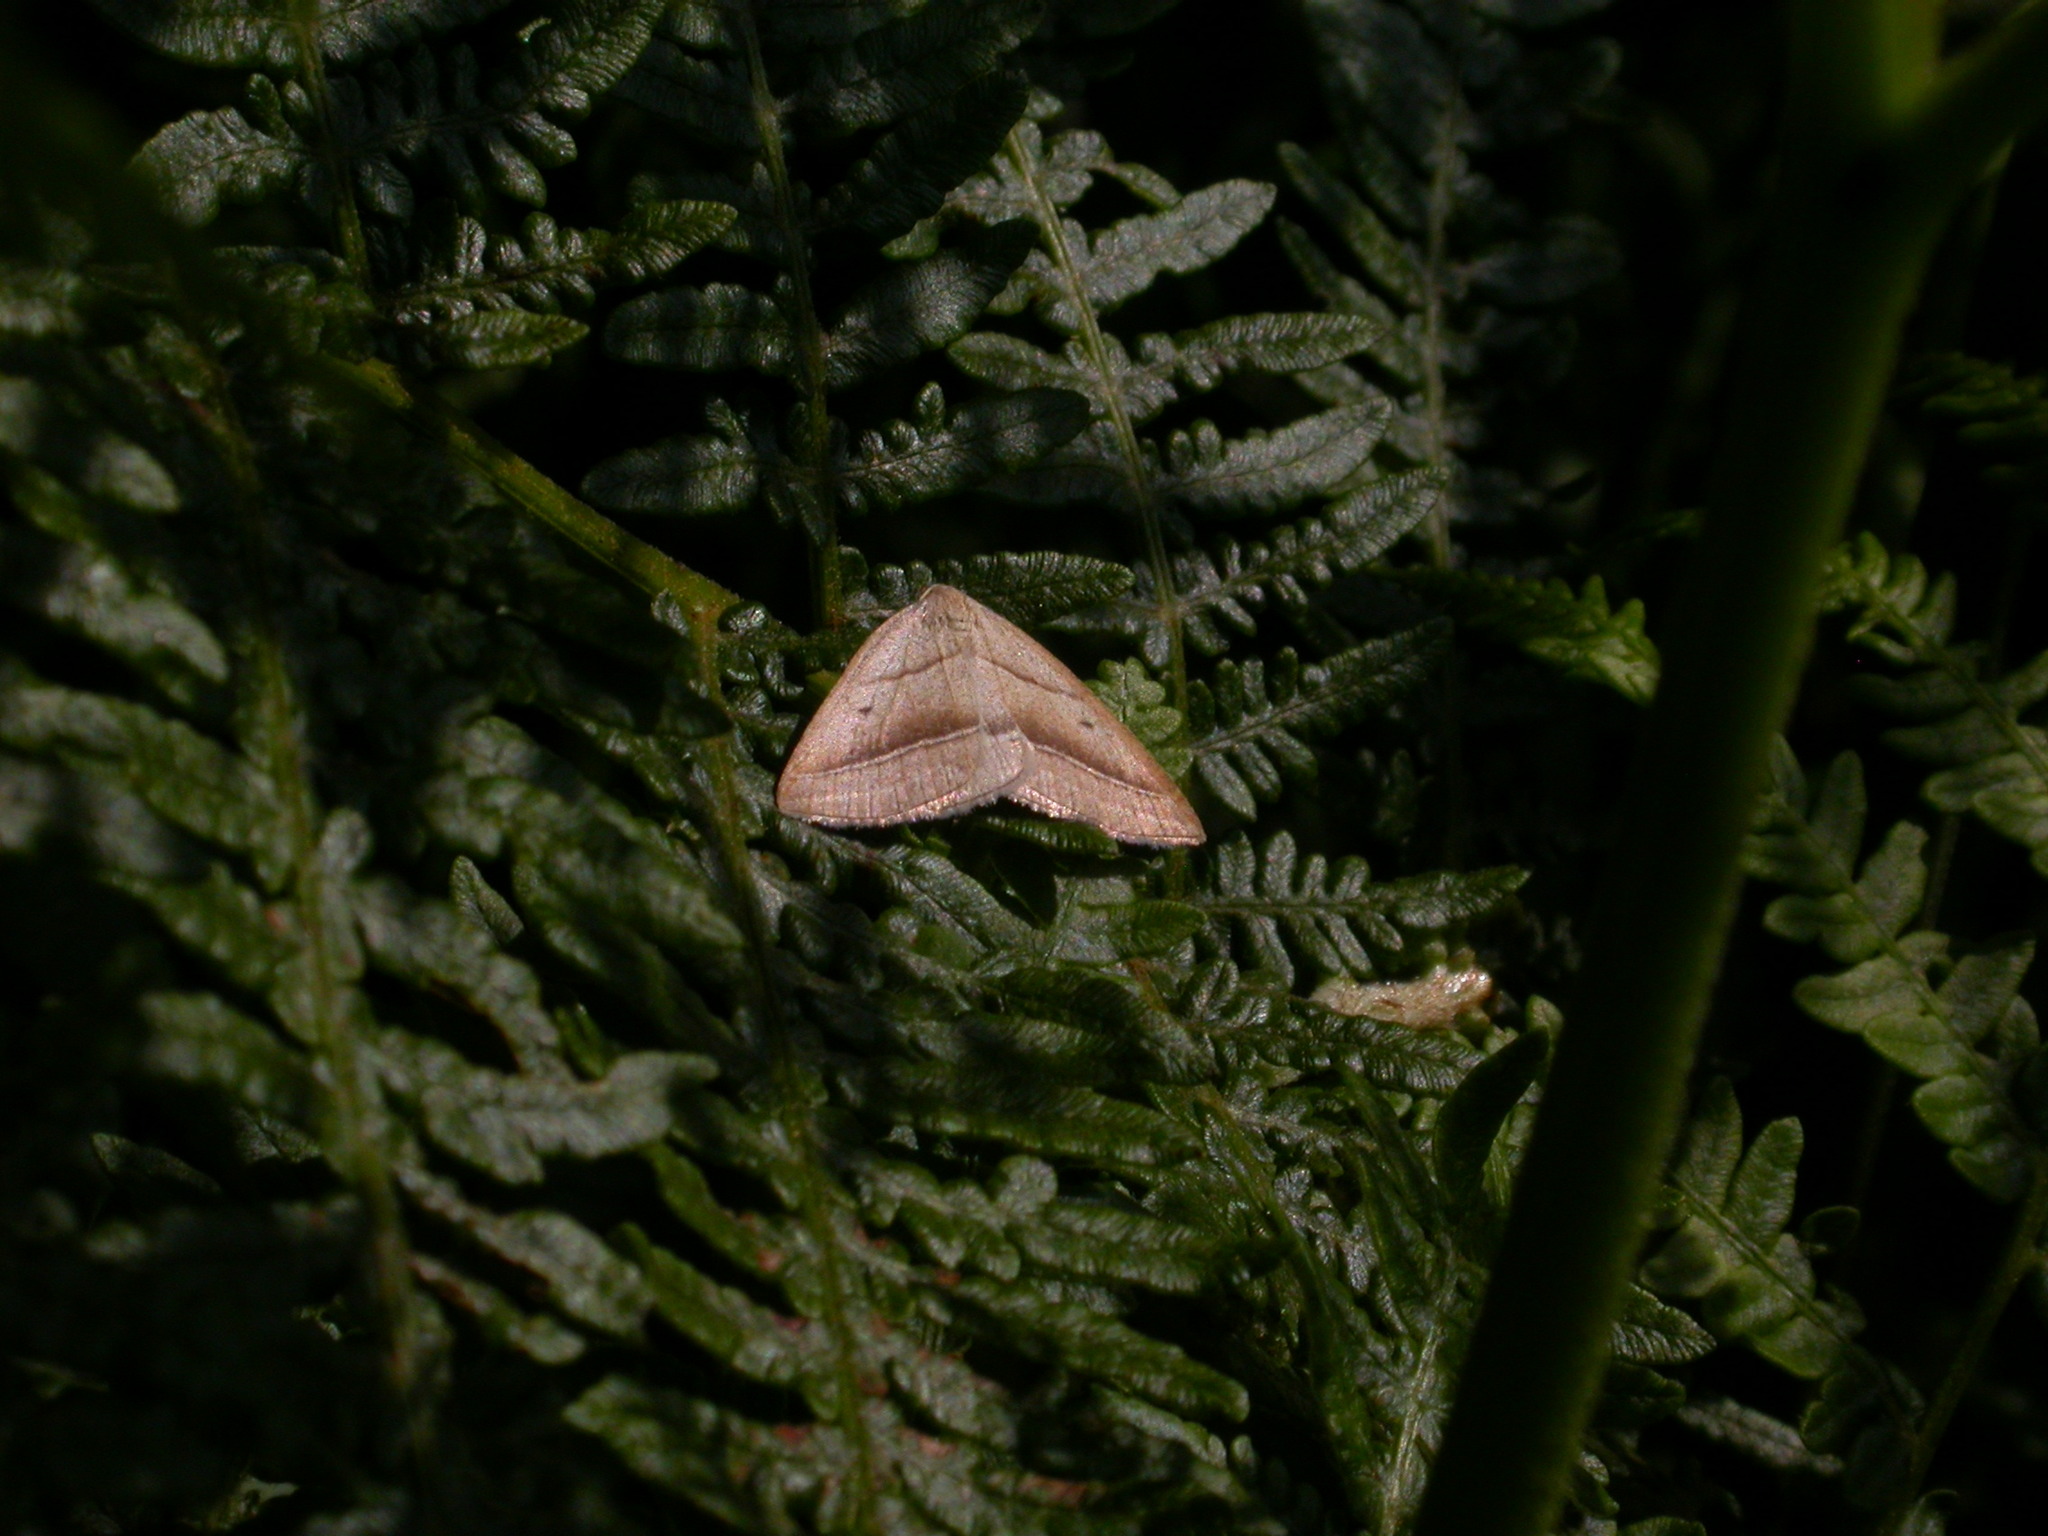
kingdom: Animalia
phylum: Arthropoda
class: Insecta
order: Lepidoptera
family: Pterophoridae
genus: Pterophorus
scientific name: Pterophorus Petrophora chlorosata
